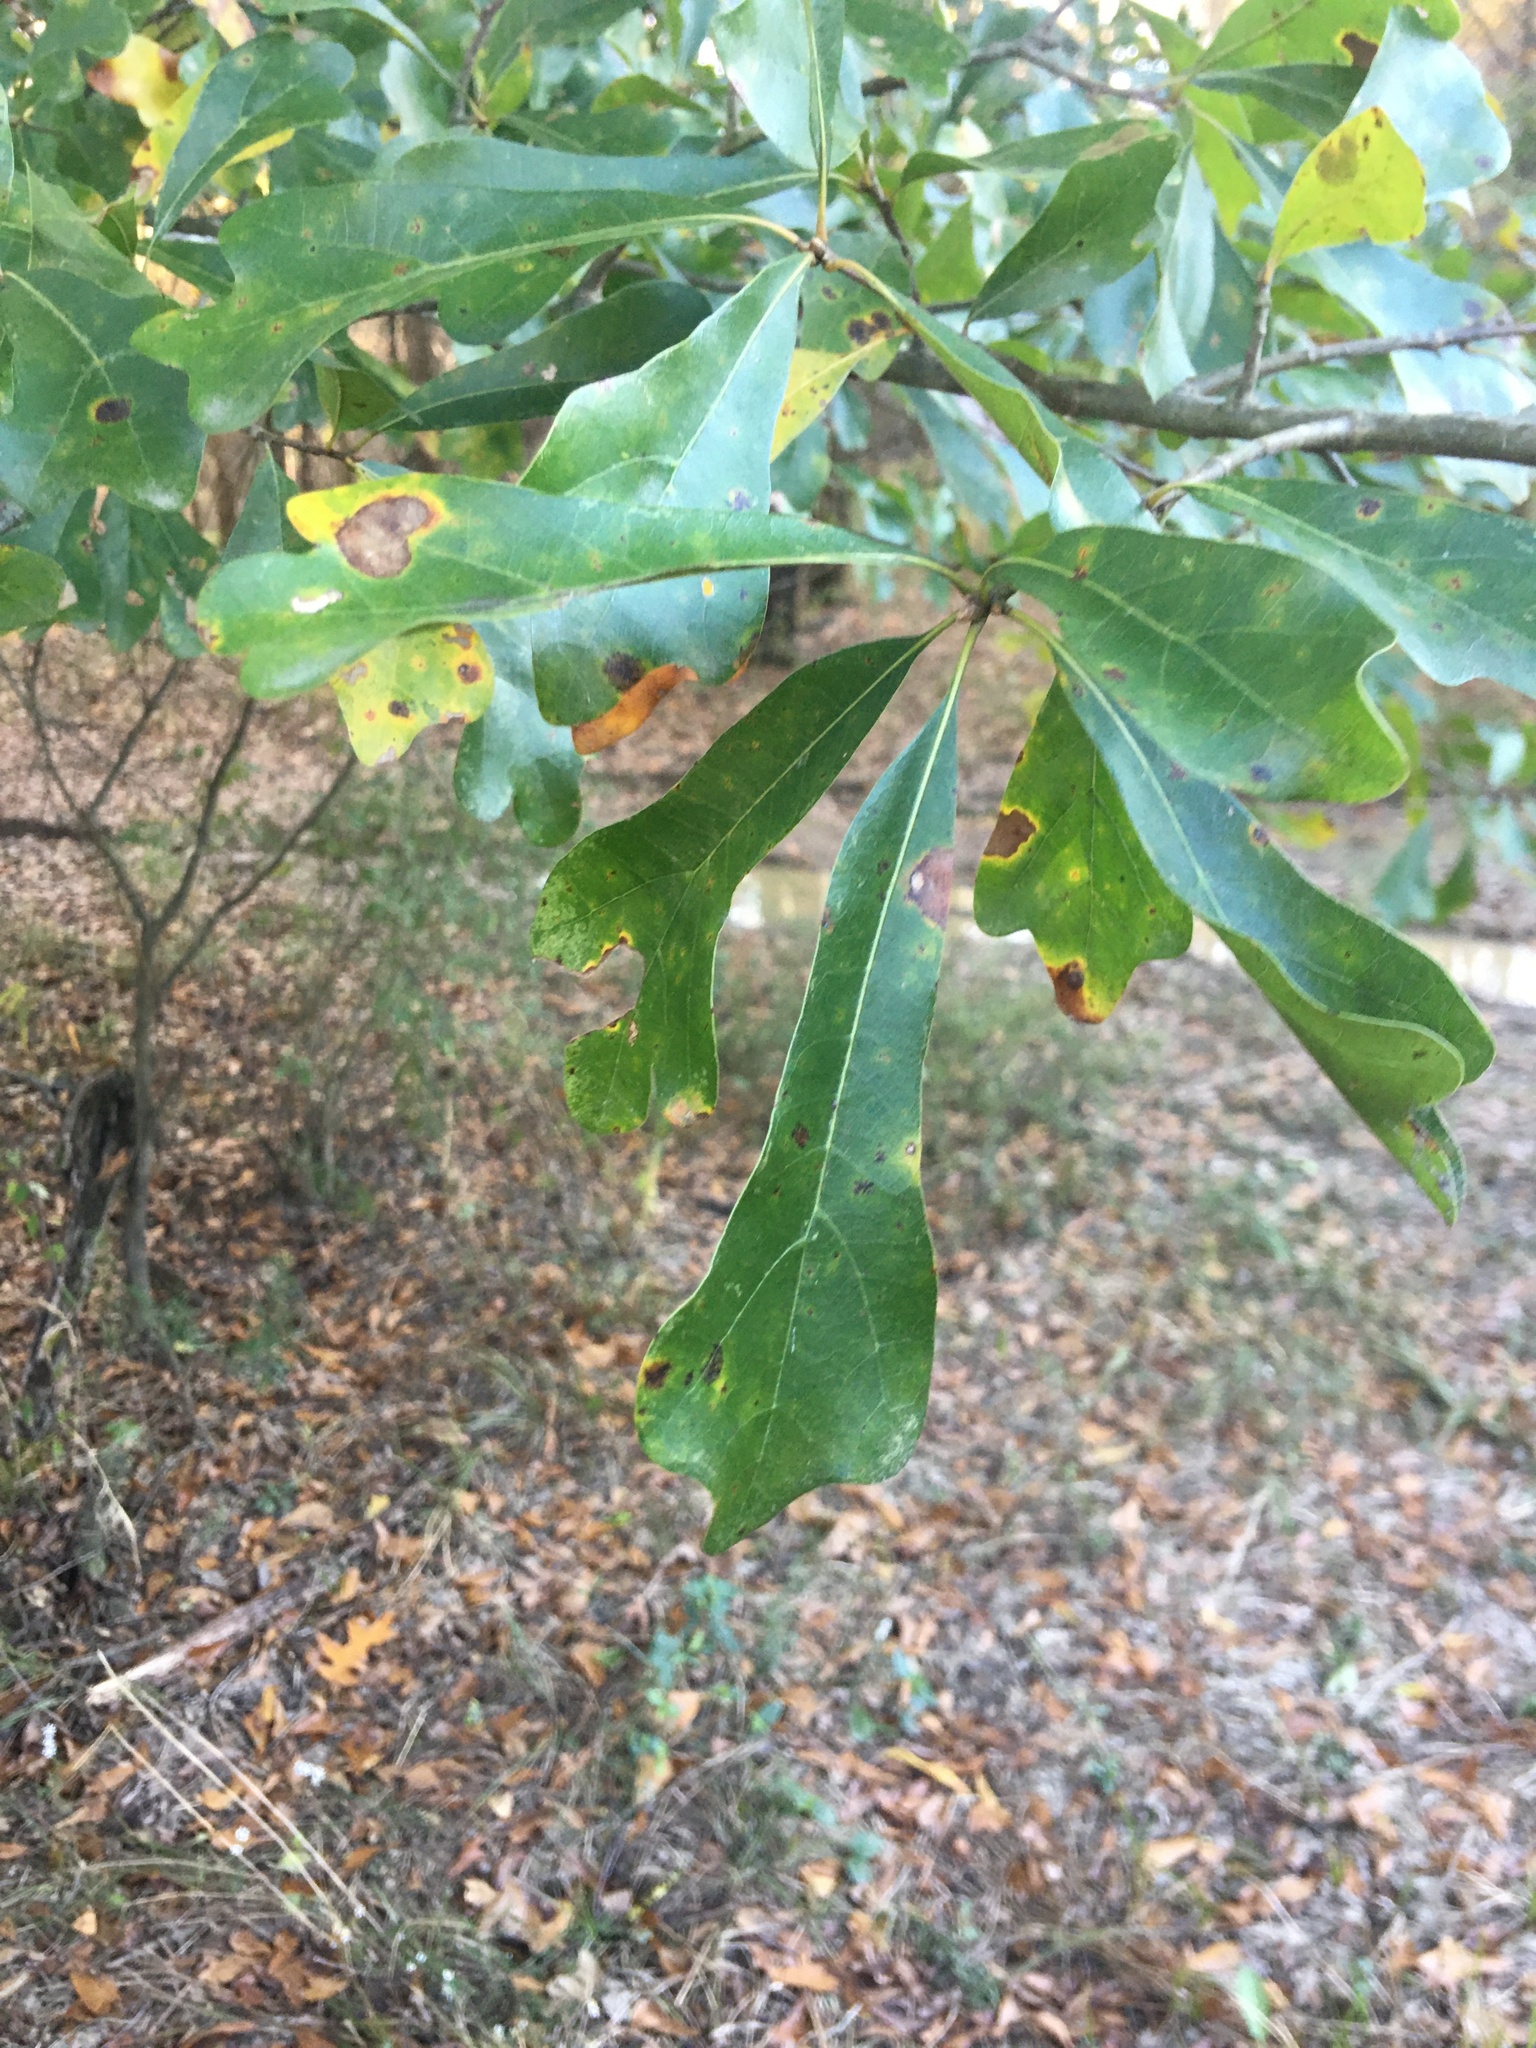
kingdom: Plantae
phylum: Tracheophyta
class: Magnoliopsida
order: Fagales
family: Fagaceae
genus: Quercus
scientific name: Quercus nigra
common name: Water oak
